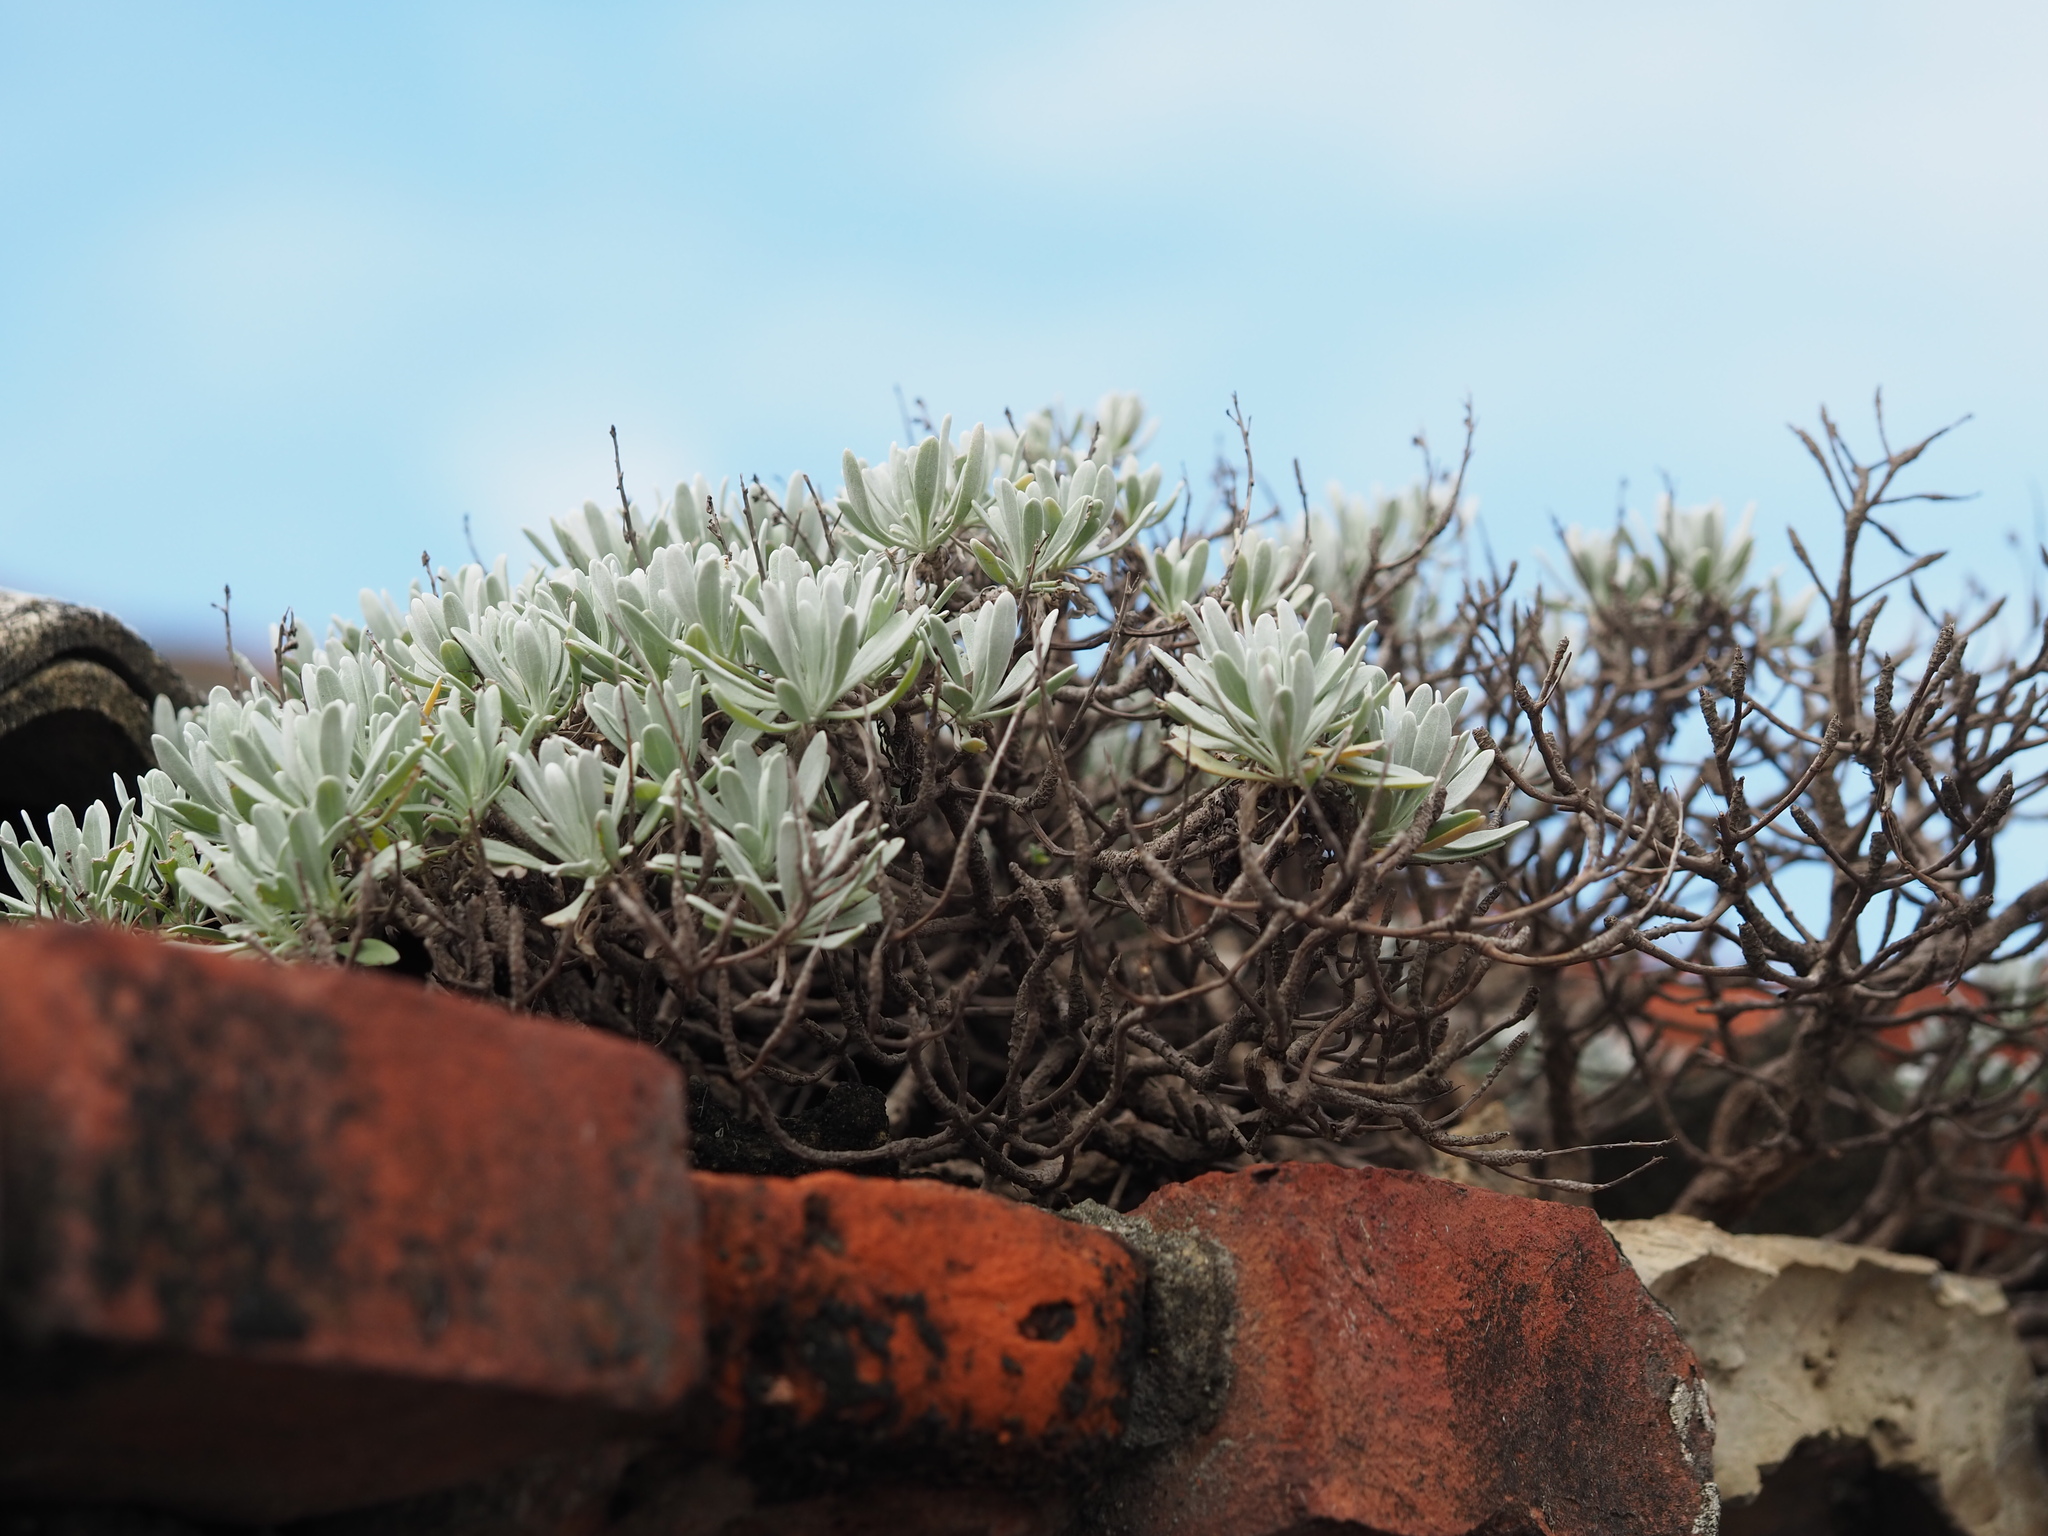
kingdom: Plantae
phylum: Tracheophyta
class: Magnoliopsida
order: Asterales
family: Asteraceae
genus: Crossostephium
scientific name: Crossostephium chinense
